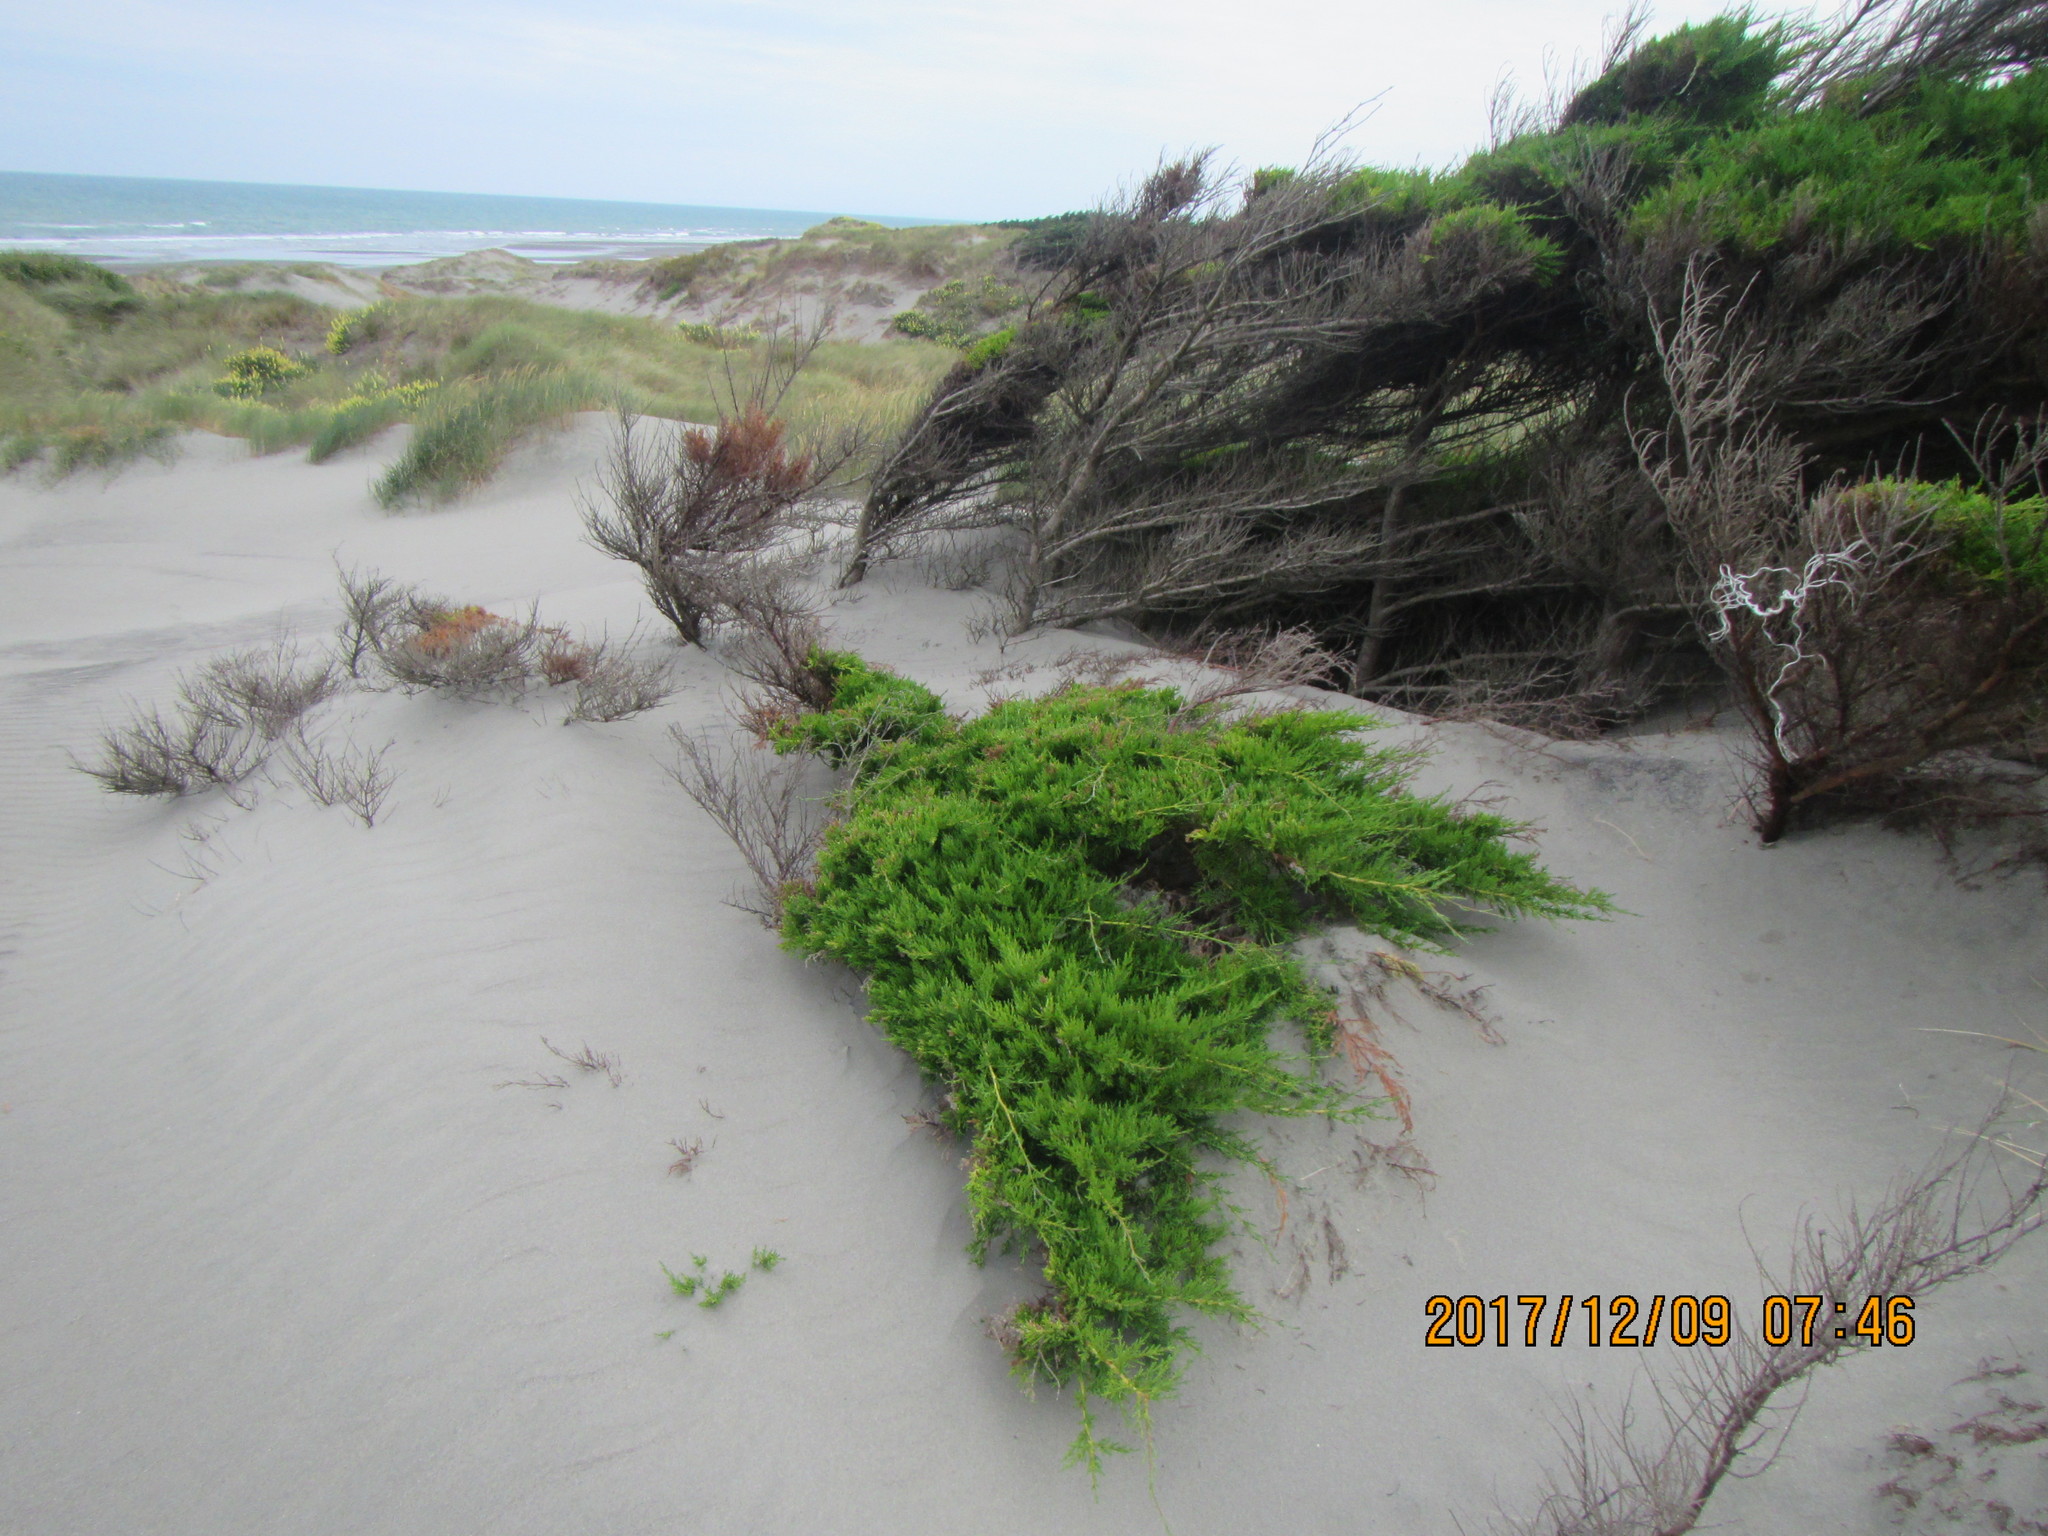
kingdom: Plantae
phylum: Tracheophyta
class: Pinopsida
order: Pinales
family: Cupressaceae
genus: Cupressus
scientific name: Cupressus macrocarpa
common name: Monterey cypress
